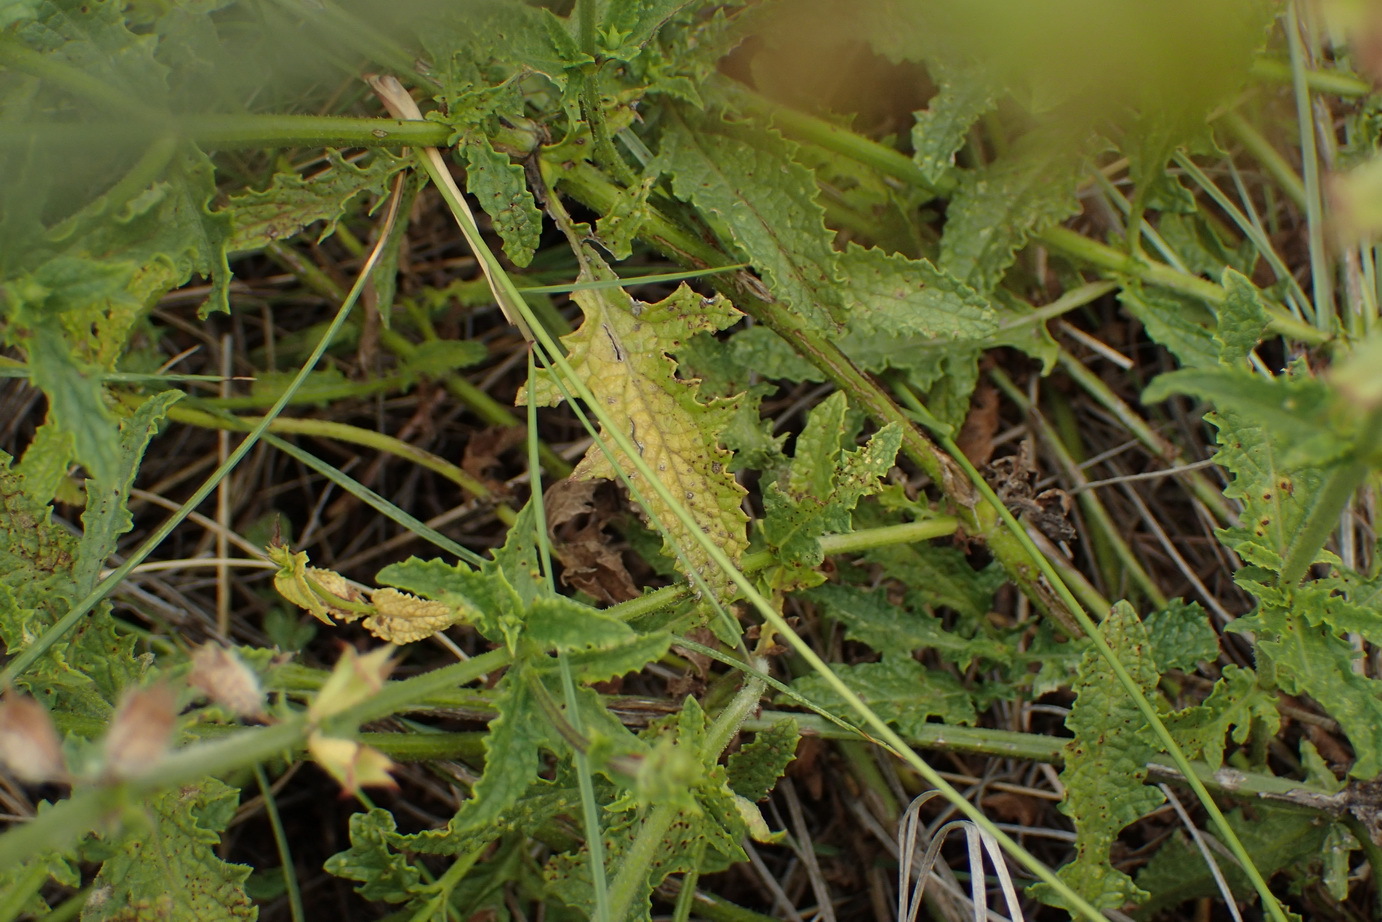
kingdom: Plantae
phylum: Tracheophyta
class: Magnoliopsida
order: Lamiales
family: Lamiaceae
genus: Ocimum
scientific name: Ocimum burchellianum
